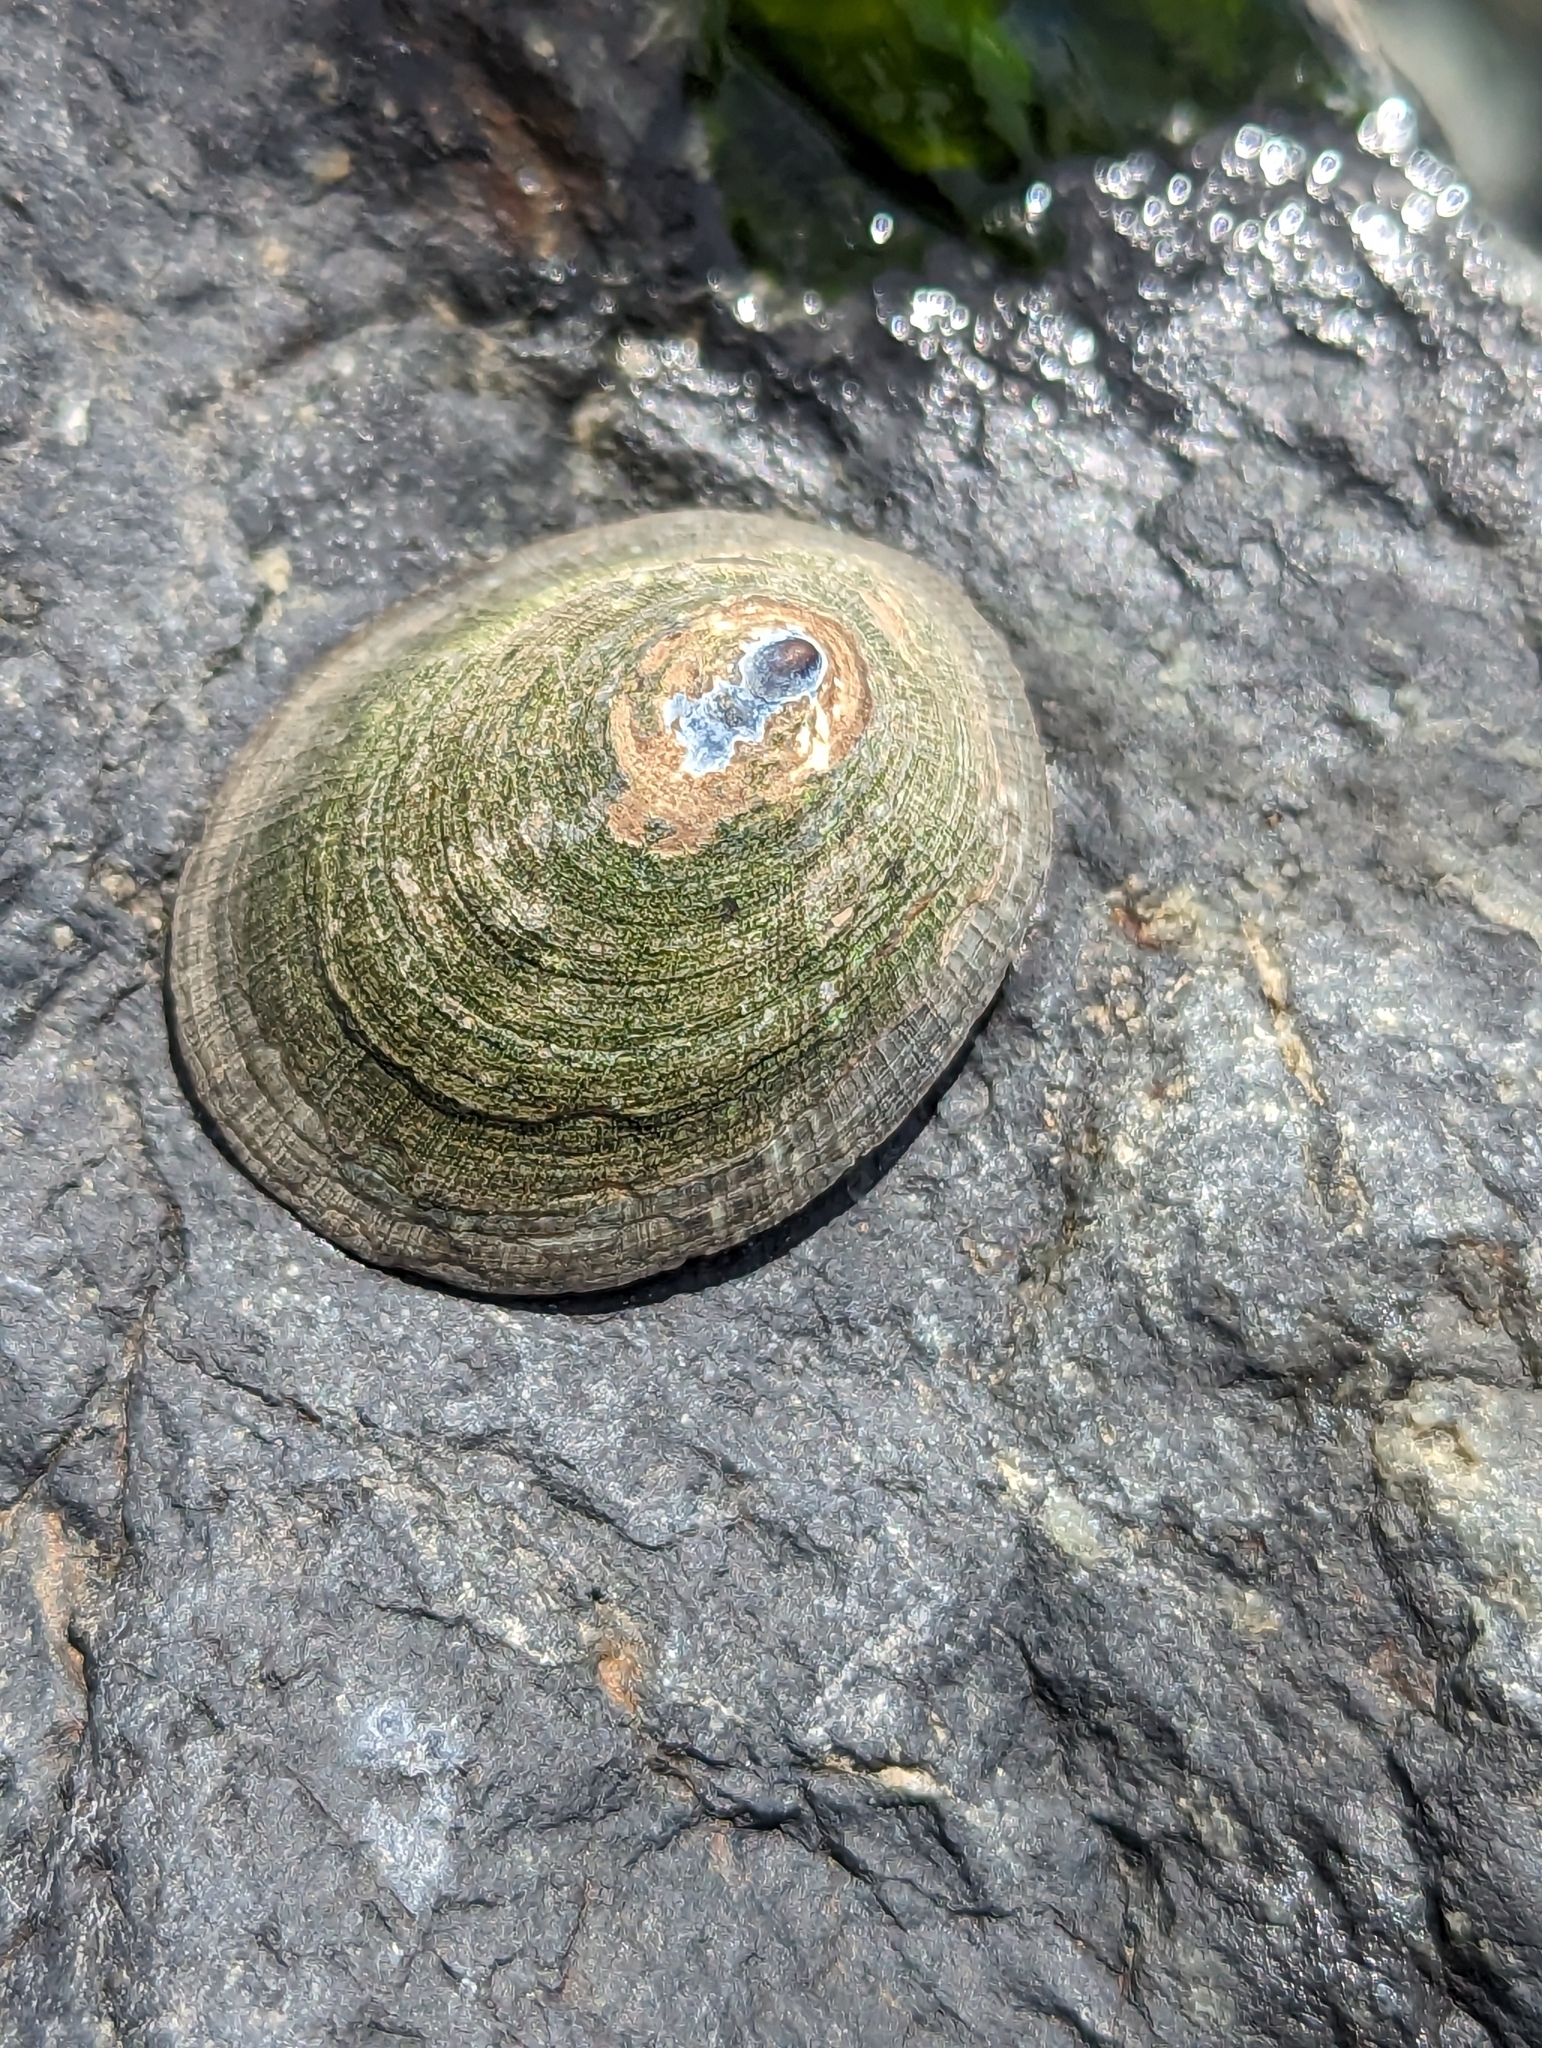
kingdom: Animalia
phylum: Mollusca
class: Gastropoda
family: Lottiidae
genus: Lottia
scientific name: Lottia persona
